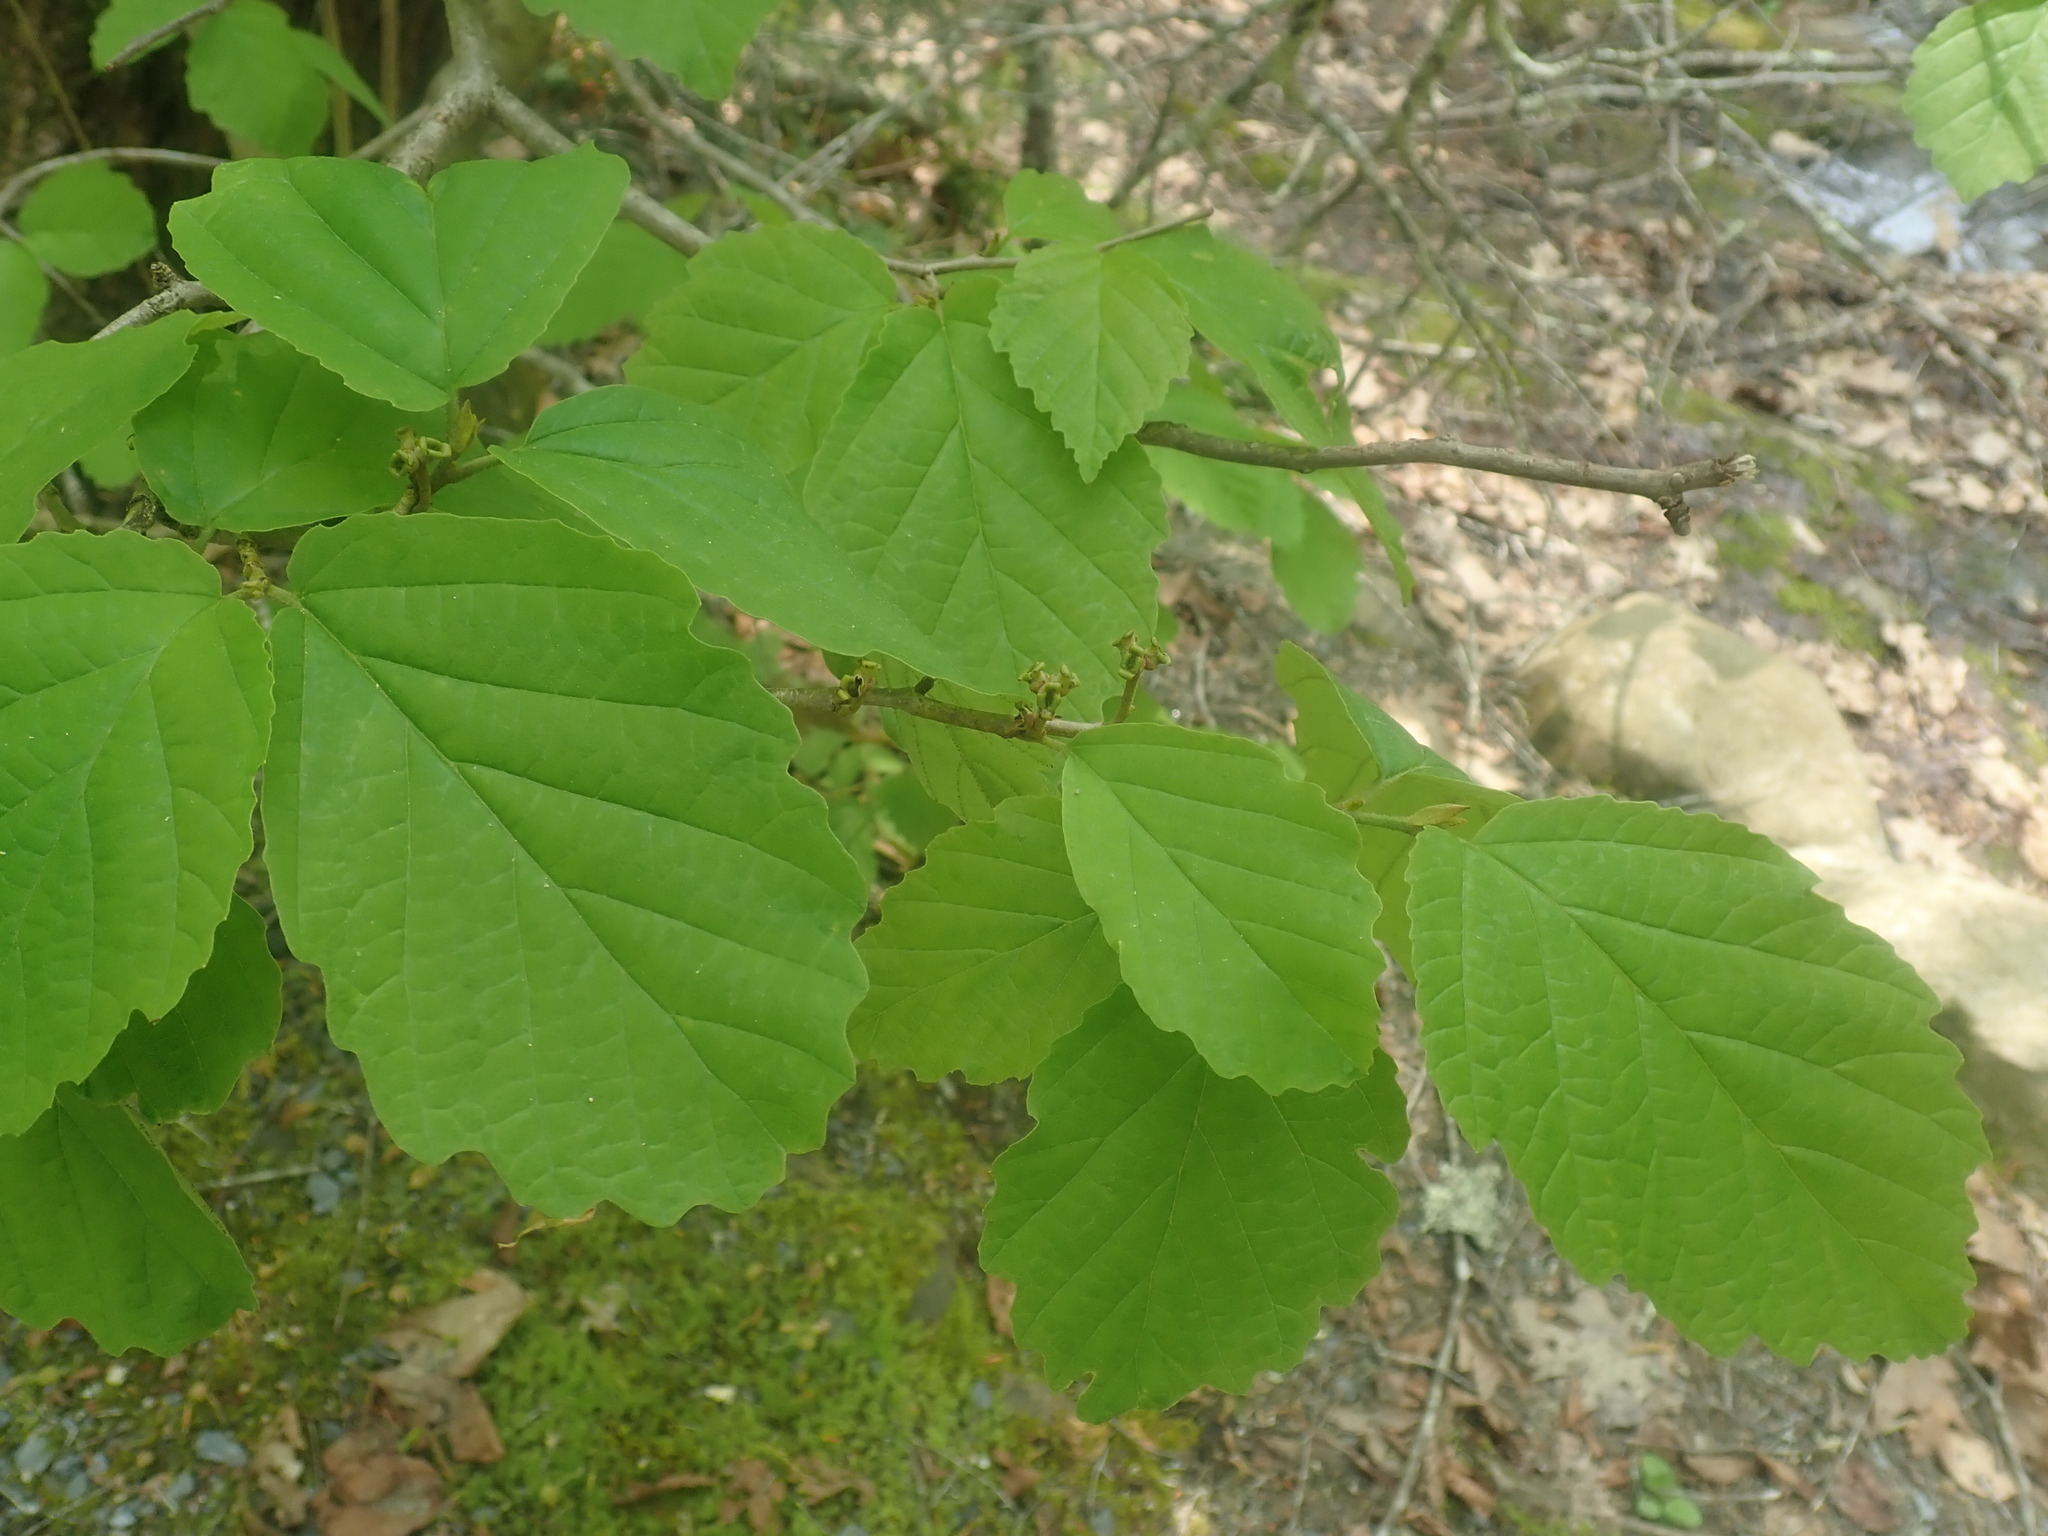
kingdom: Plantae
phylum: Tracheophyta
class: Magnoliopsida
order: Saxifragales
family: Hamamelidaceae
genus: Hamamelis
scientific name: Hamamelis virginiana
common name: Witch-hazel
